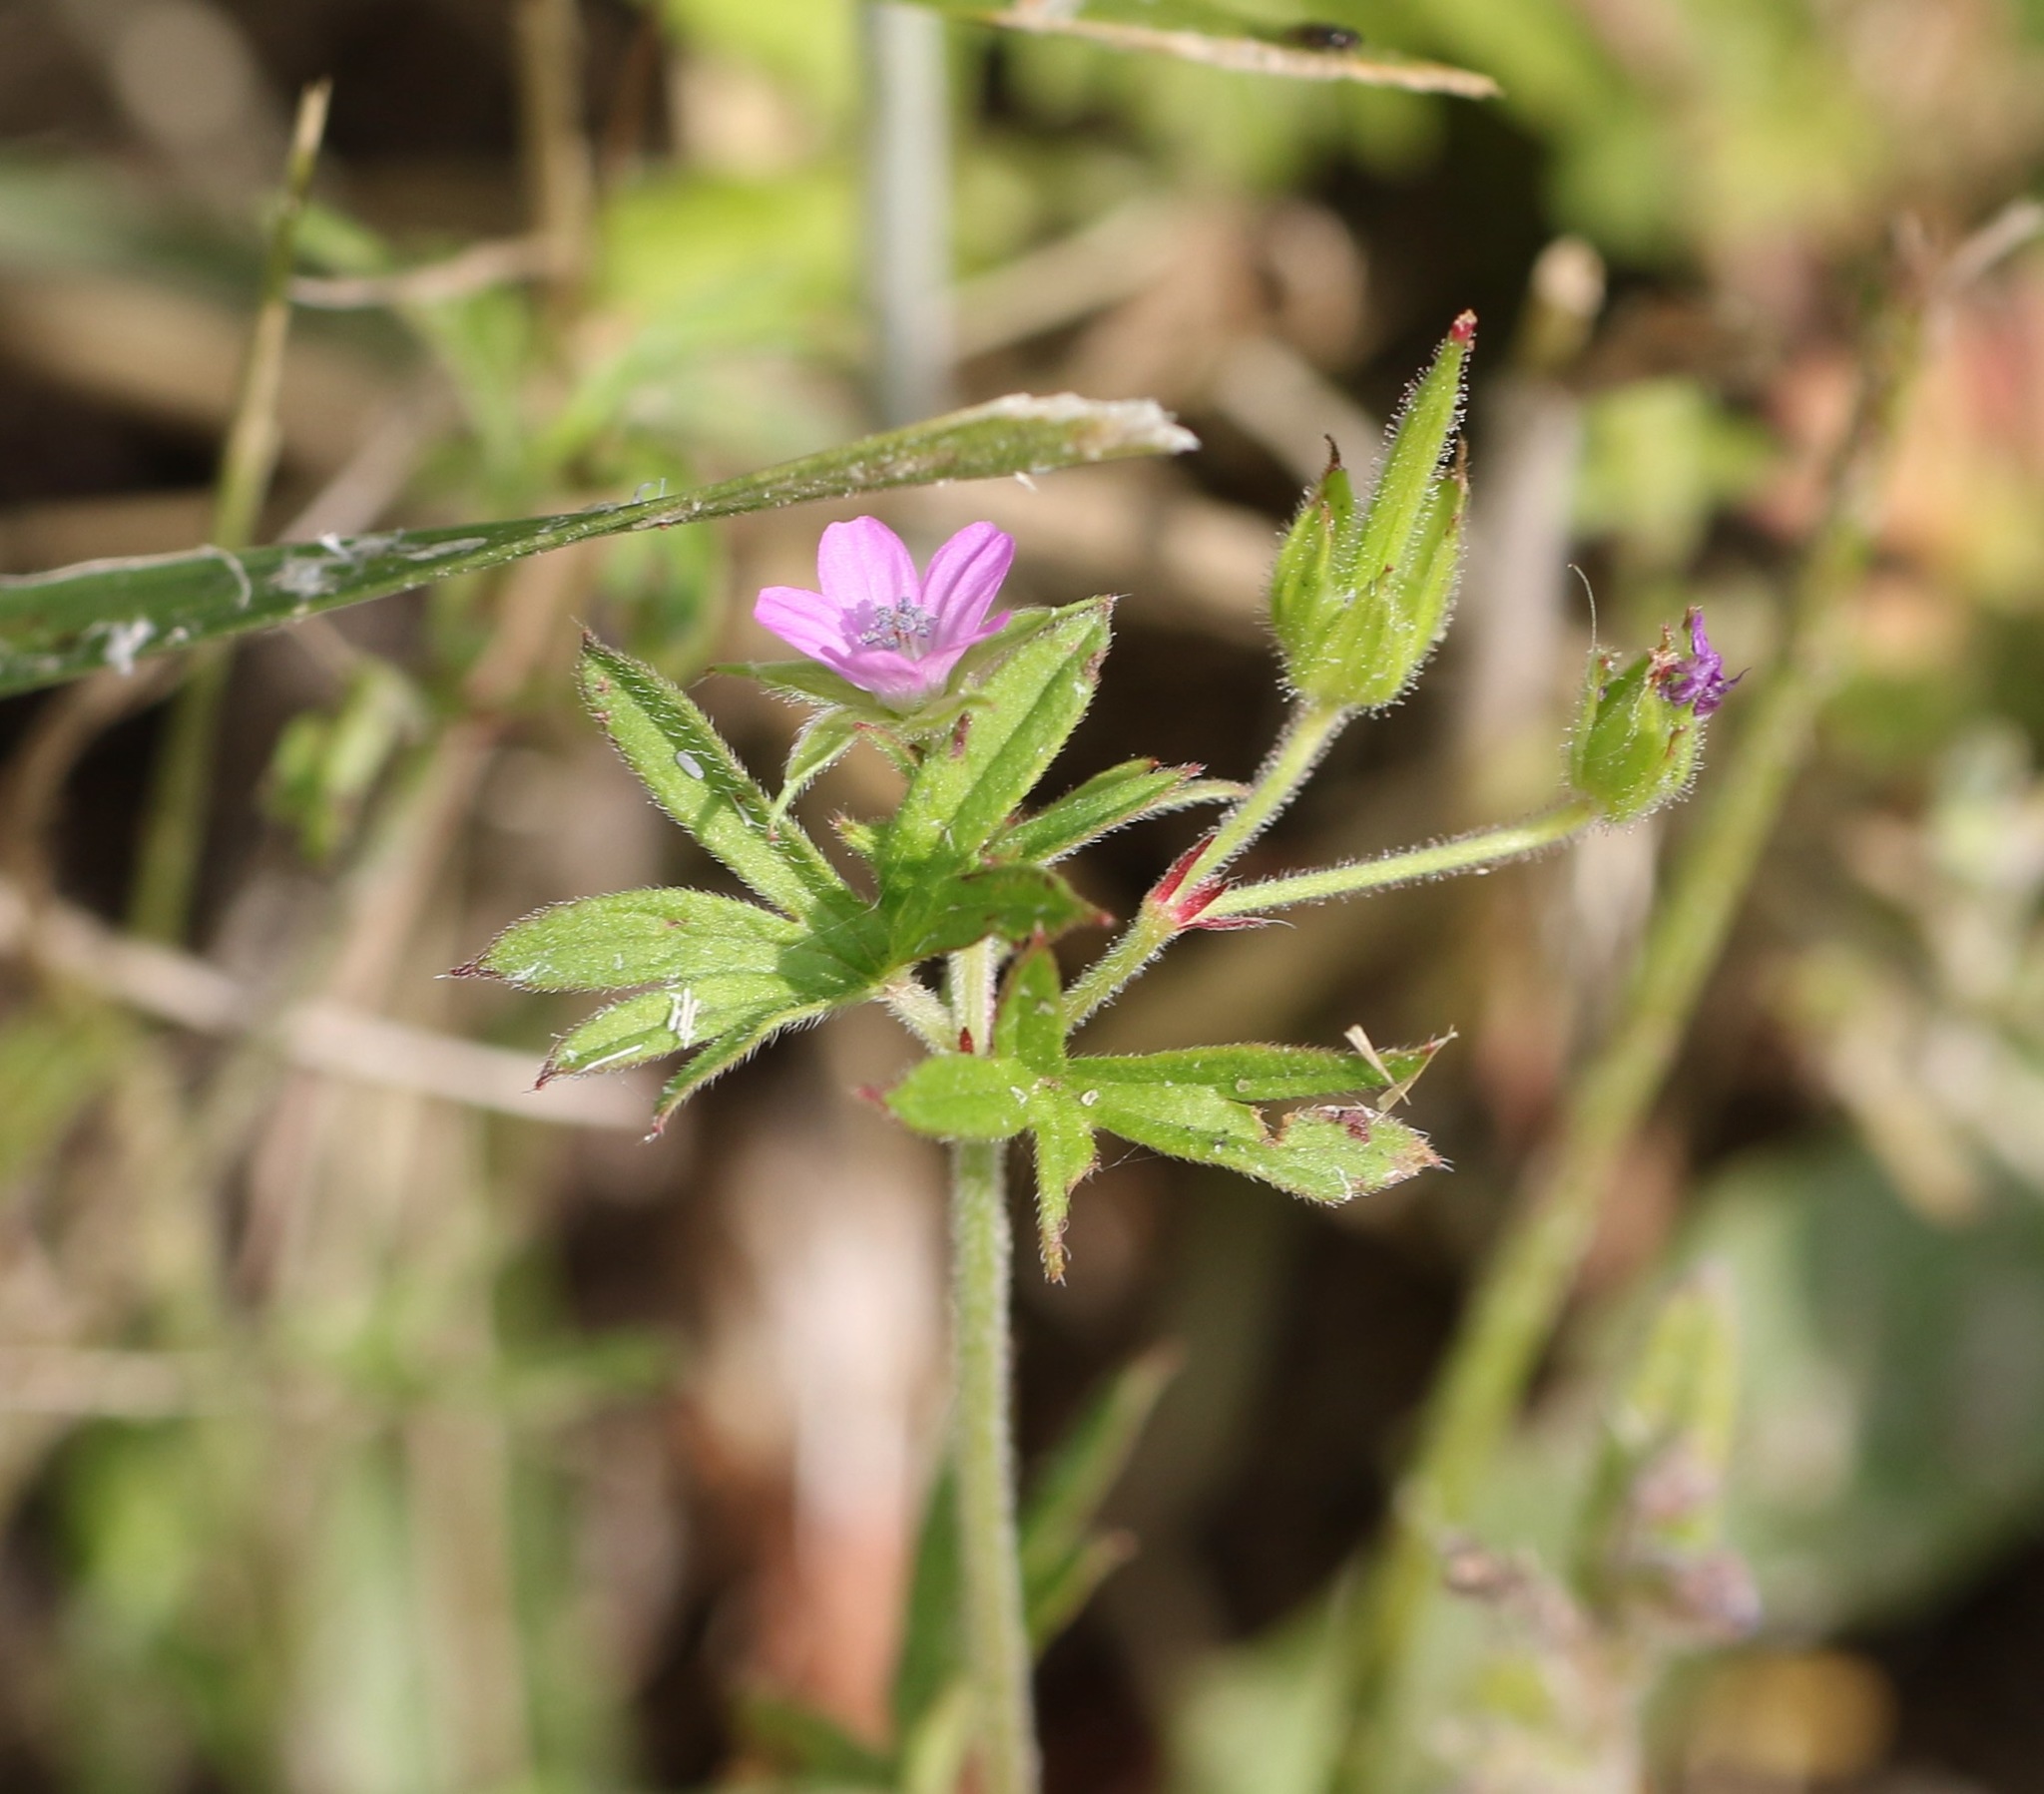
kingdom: Plantae
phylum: Tracheophyta
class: Magnoliopsida
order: Geraniales
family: Geraniaceae
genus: Geranium
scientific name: Geranium dissectum
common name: Cut-leaved crane's-bill
